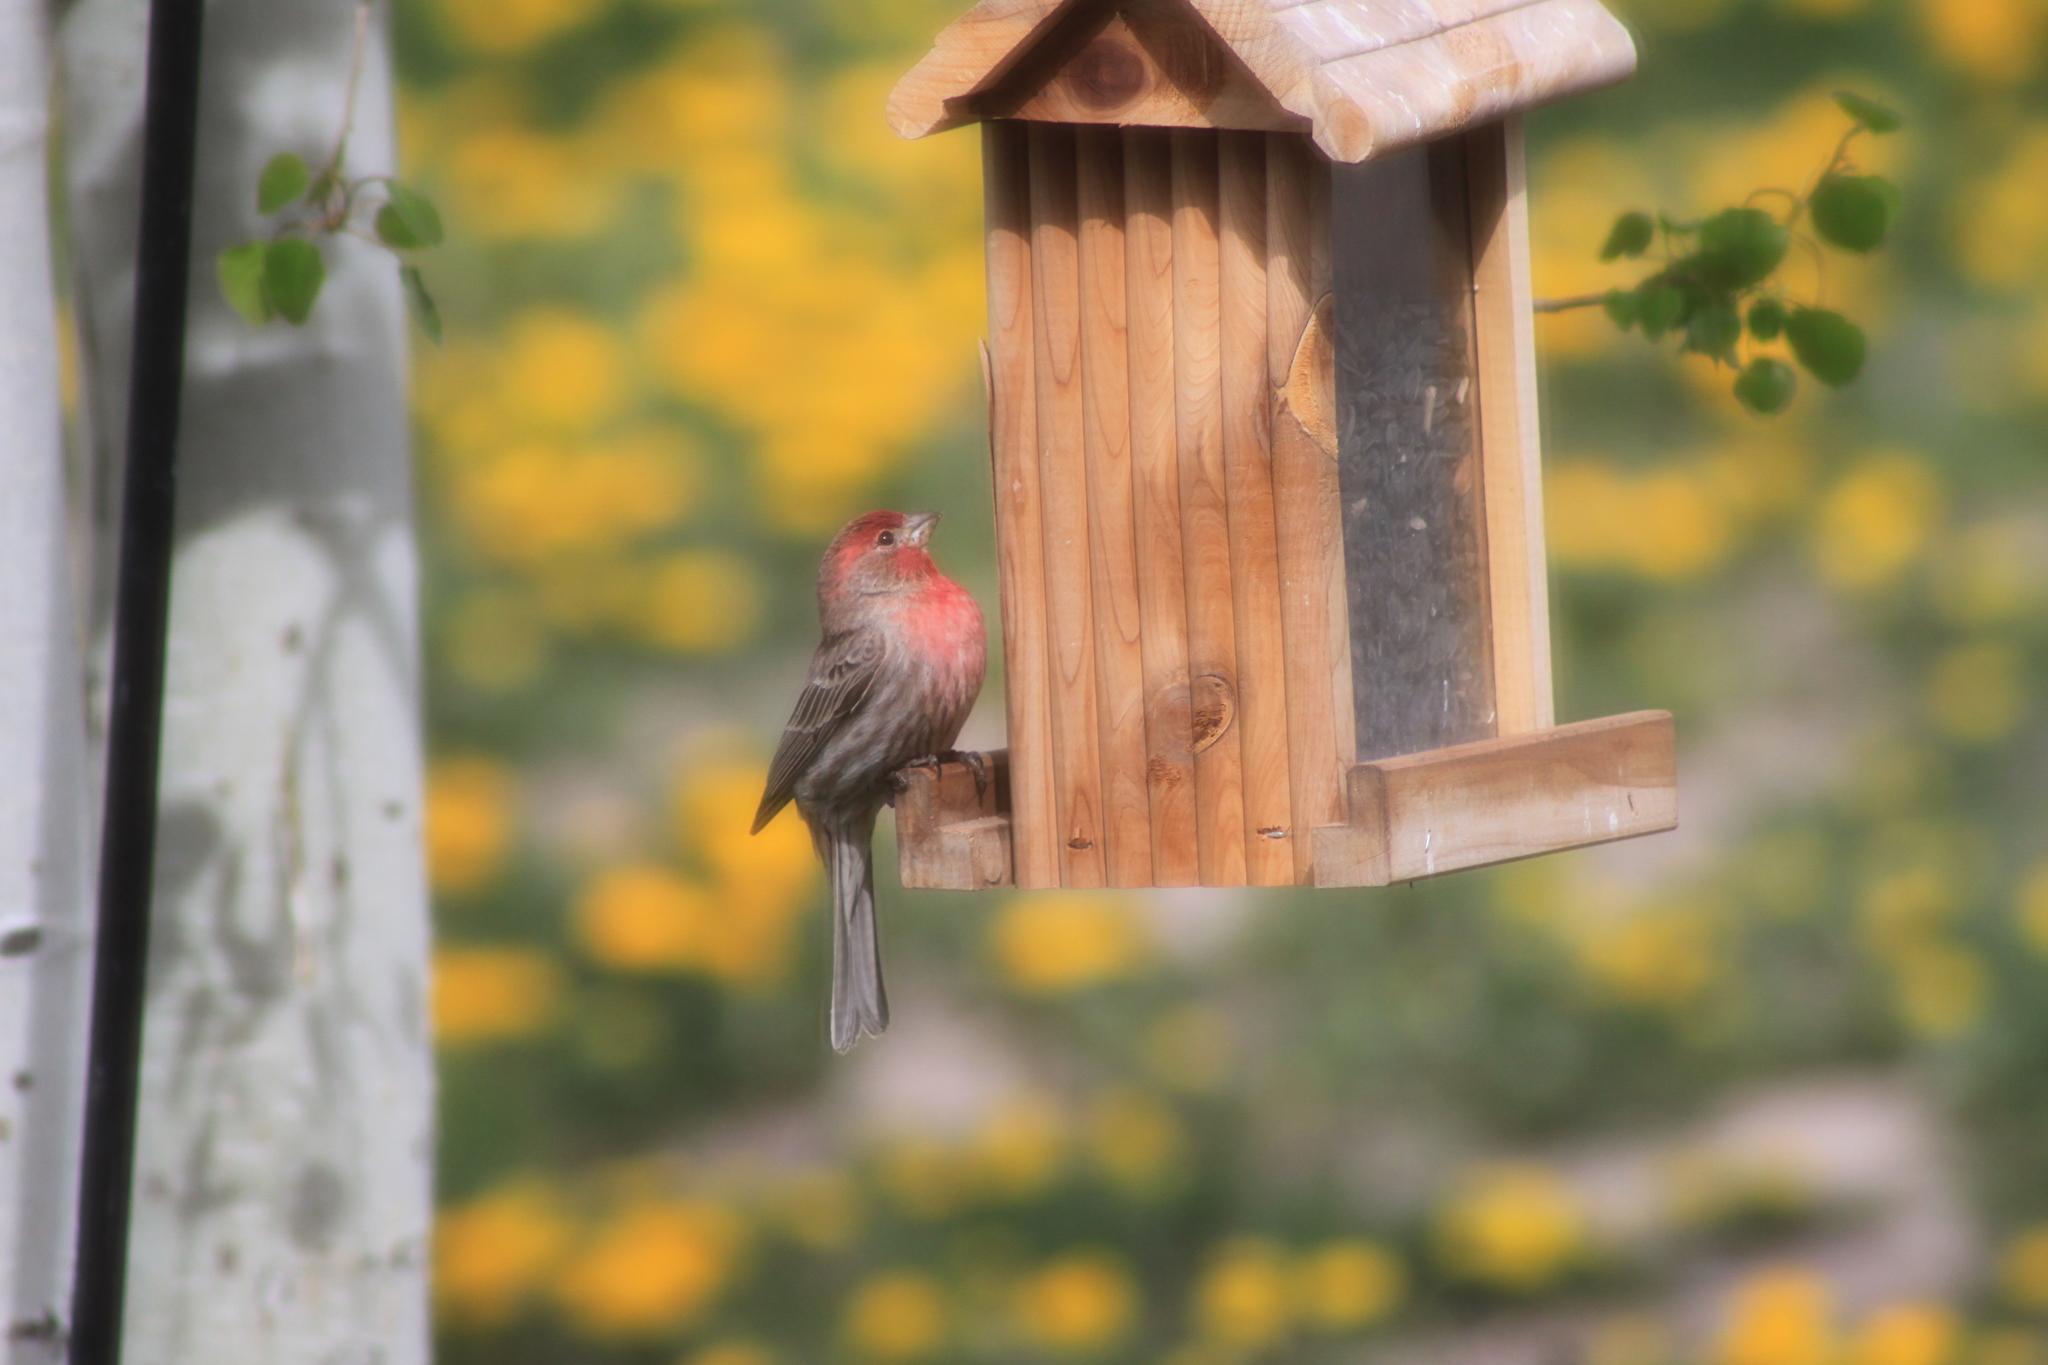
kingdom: Animalia
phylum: Chordata
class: Aves
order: Passeriformes
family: Fringillidae
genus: Haemorhous
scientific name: Haemorhous mexicanus
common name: House finch
